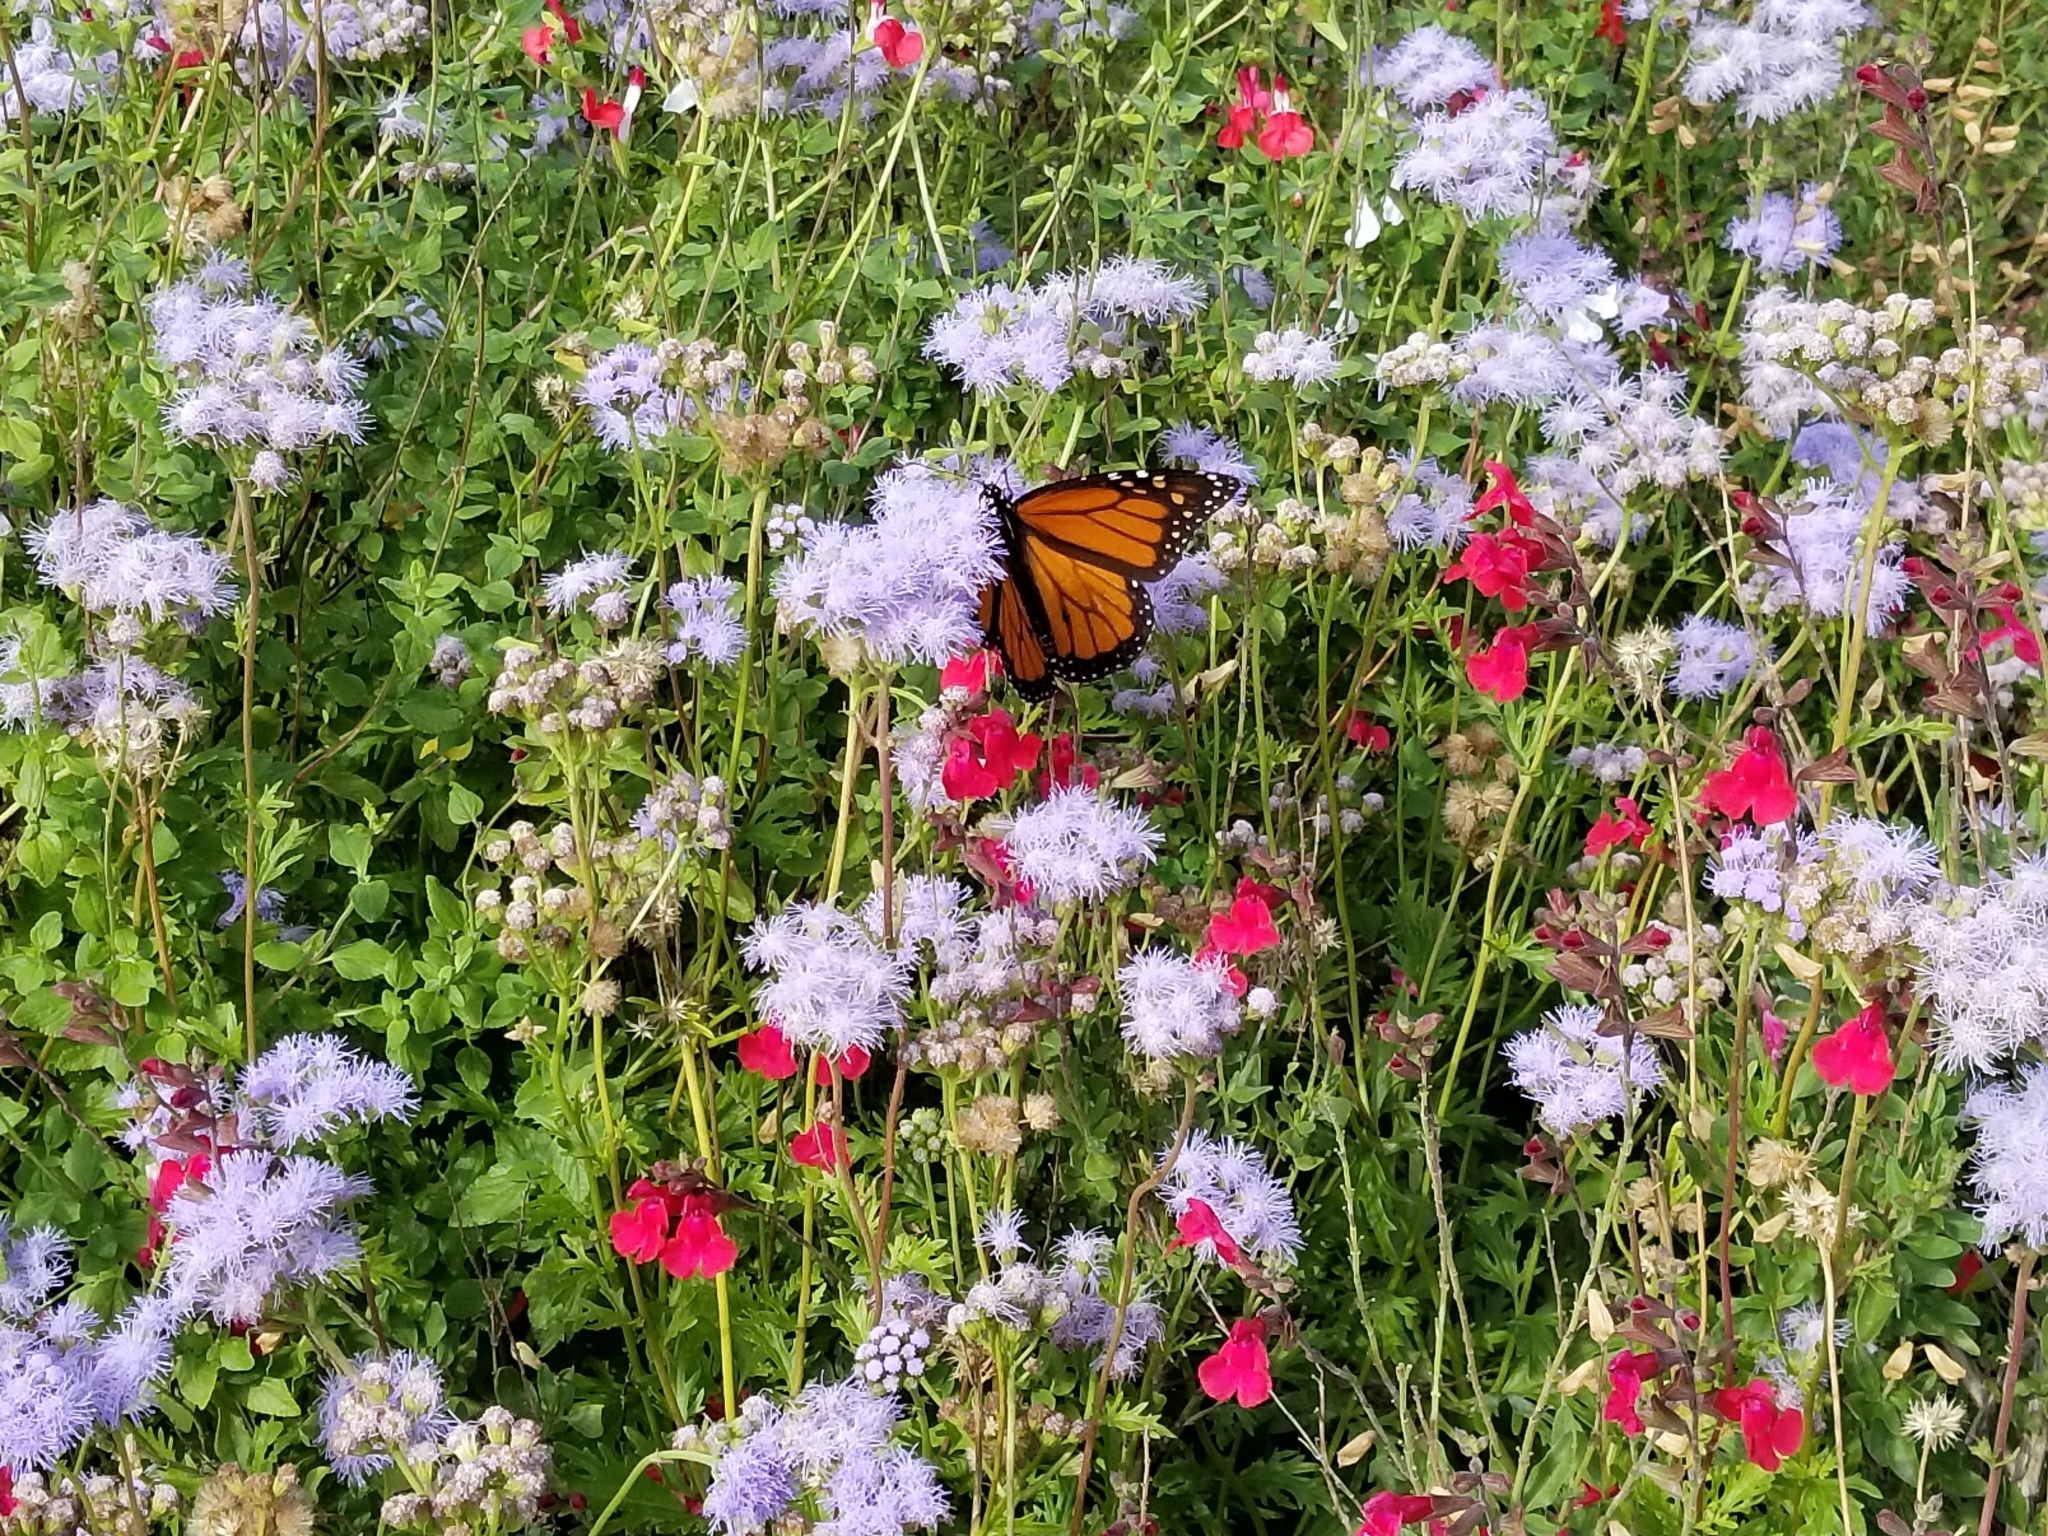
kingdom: Animalia
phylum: Arthropoda
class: Insecta
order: Lepidoptera
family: Nymphalidae
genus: Danaus
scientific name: Danaus plexippus
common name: Monarch
